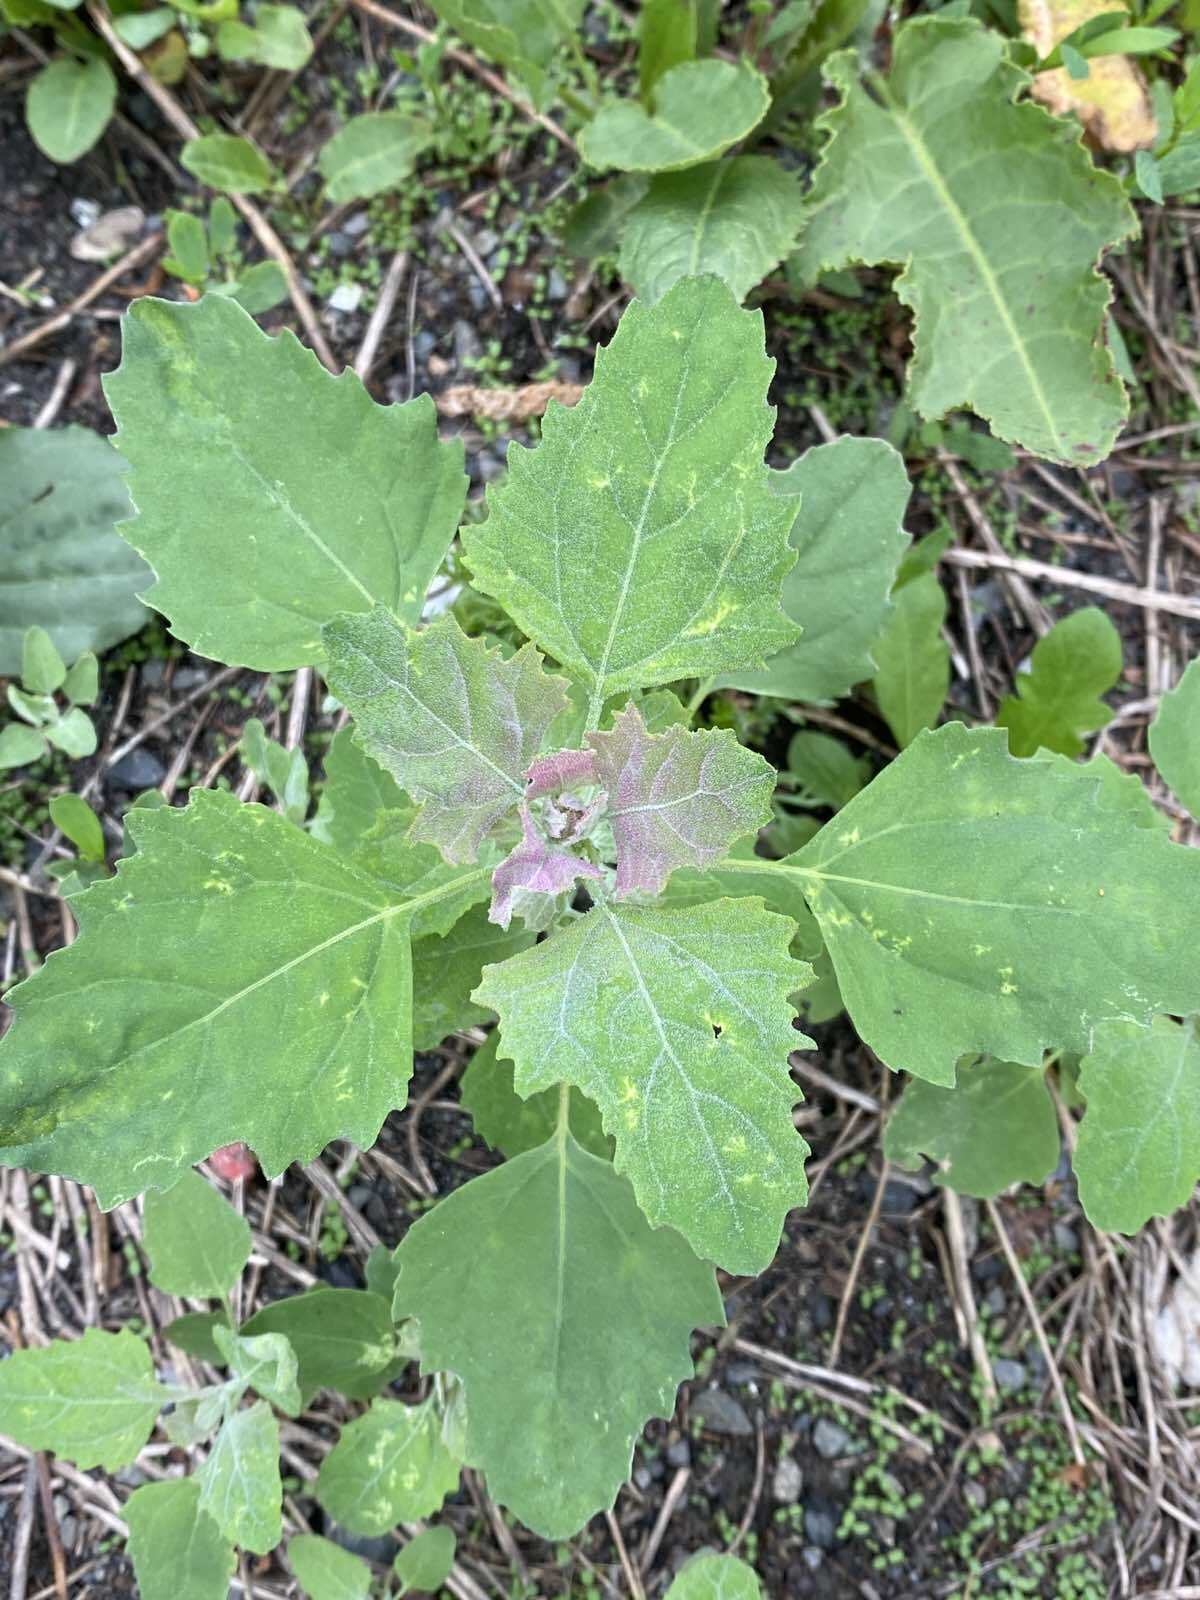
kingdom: Plantae
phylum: Tracheophyta
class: Magnoliopsida
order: Caryophyllales
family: Amaranthaceae
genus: Chenopodium
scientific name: Chenopodium album
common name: Fat-hen
